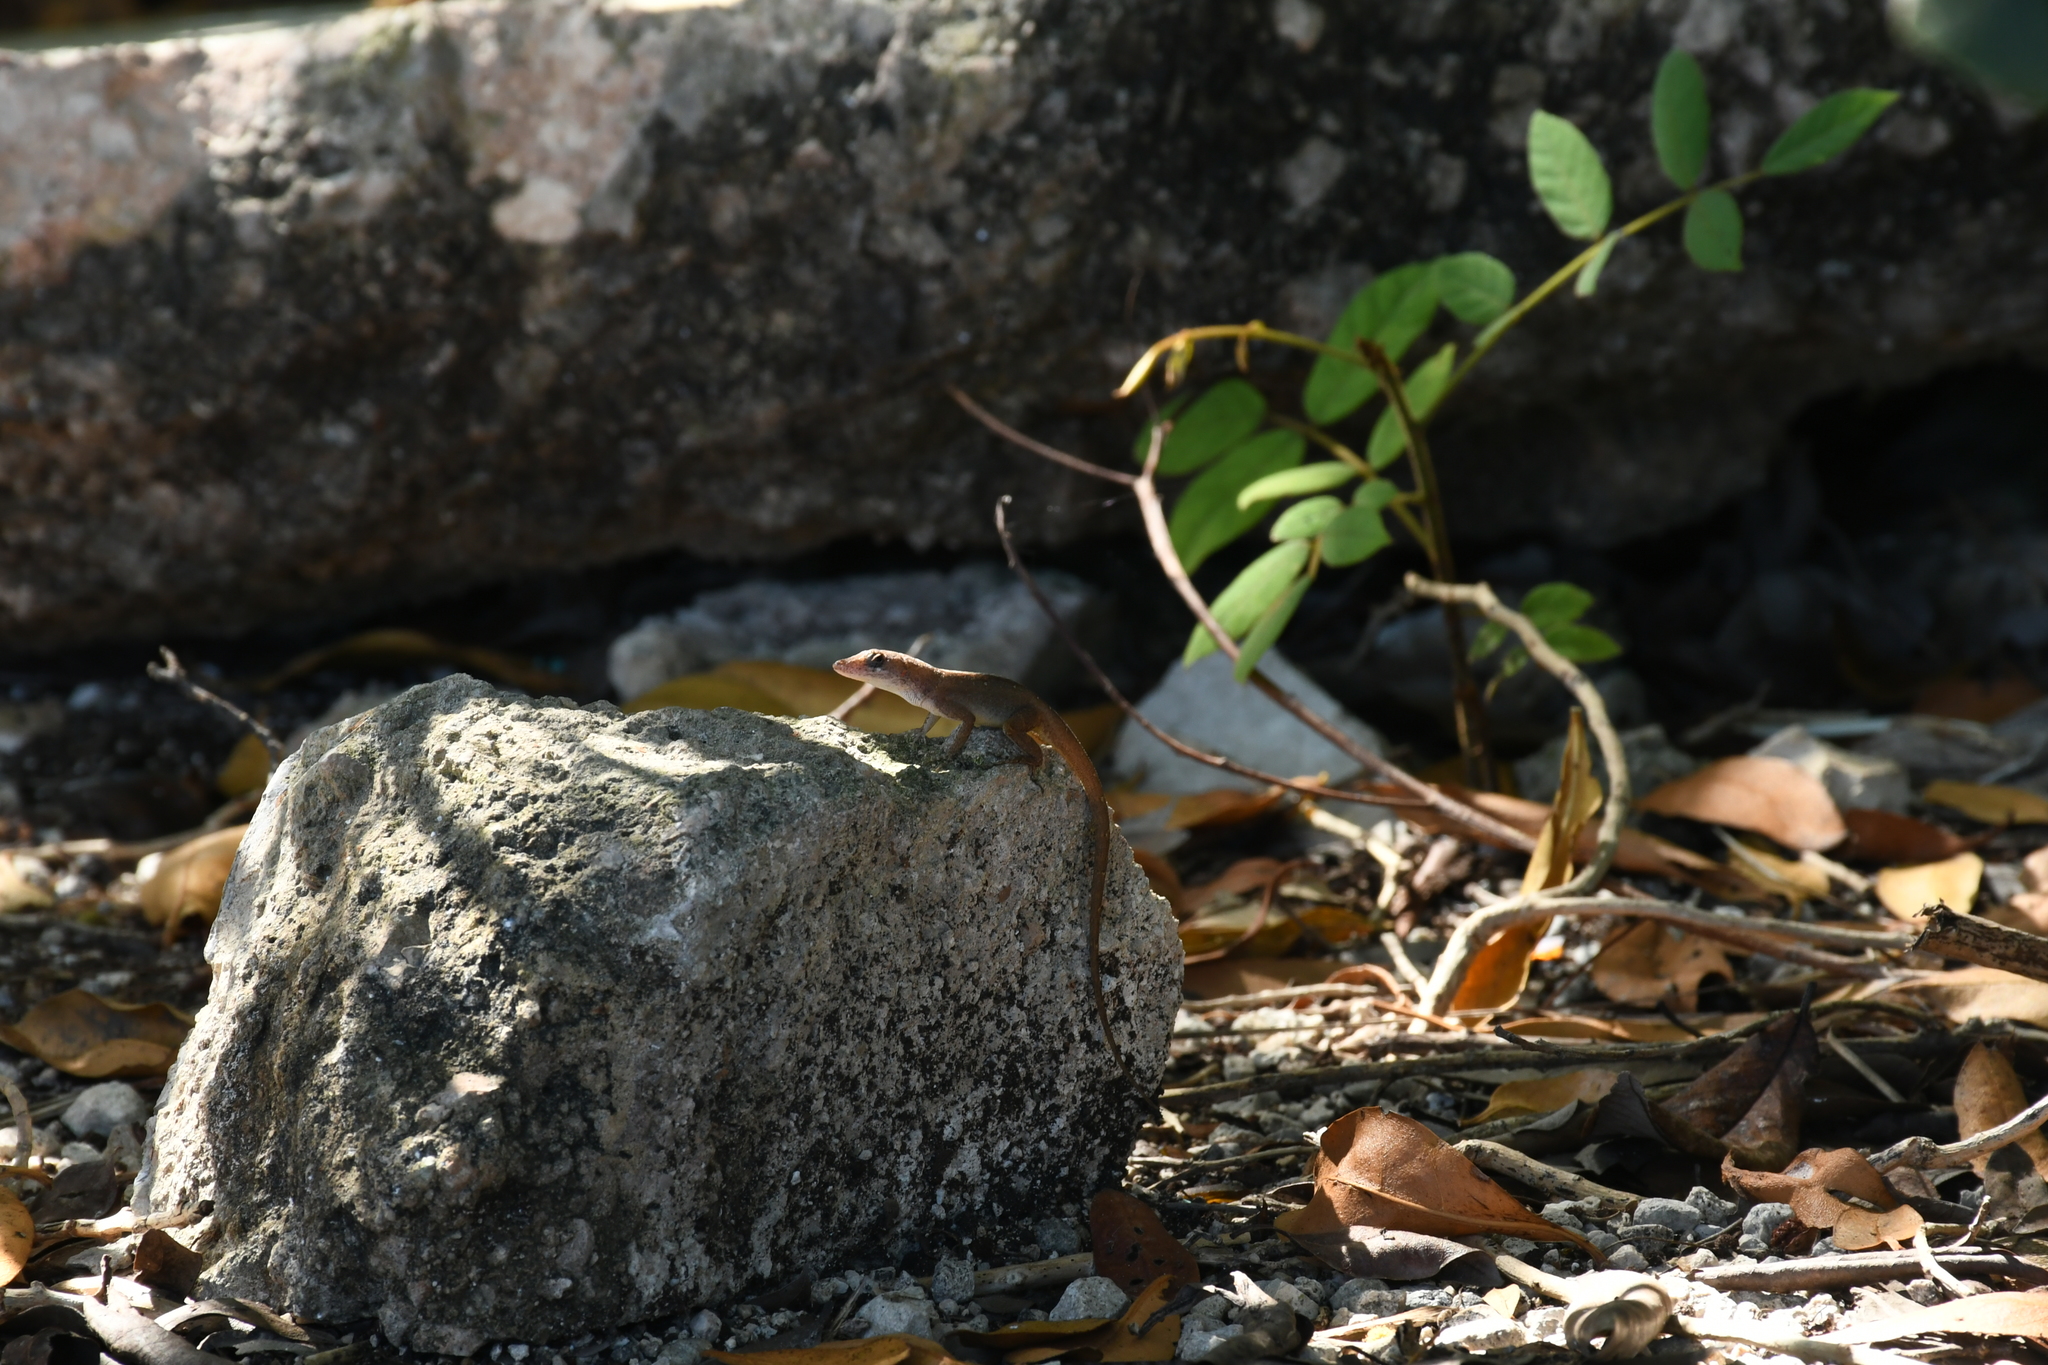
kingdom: Animalia
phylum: Chordata
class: Squamata
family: Dactyloidae
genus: Anolis
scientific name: Anolis sagrei
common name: Brown anole
